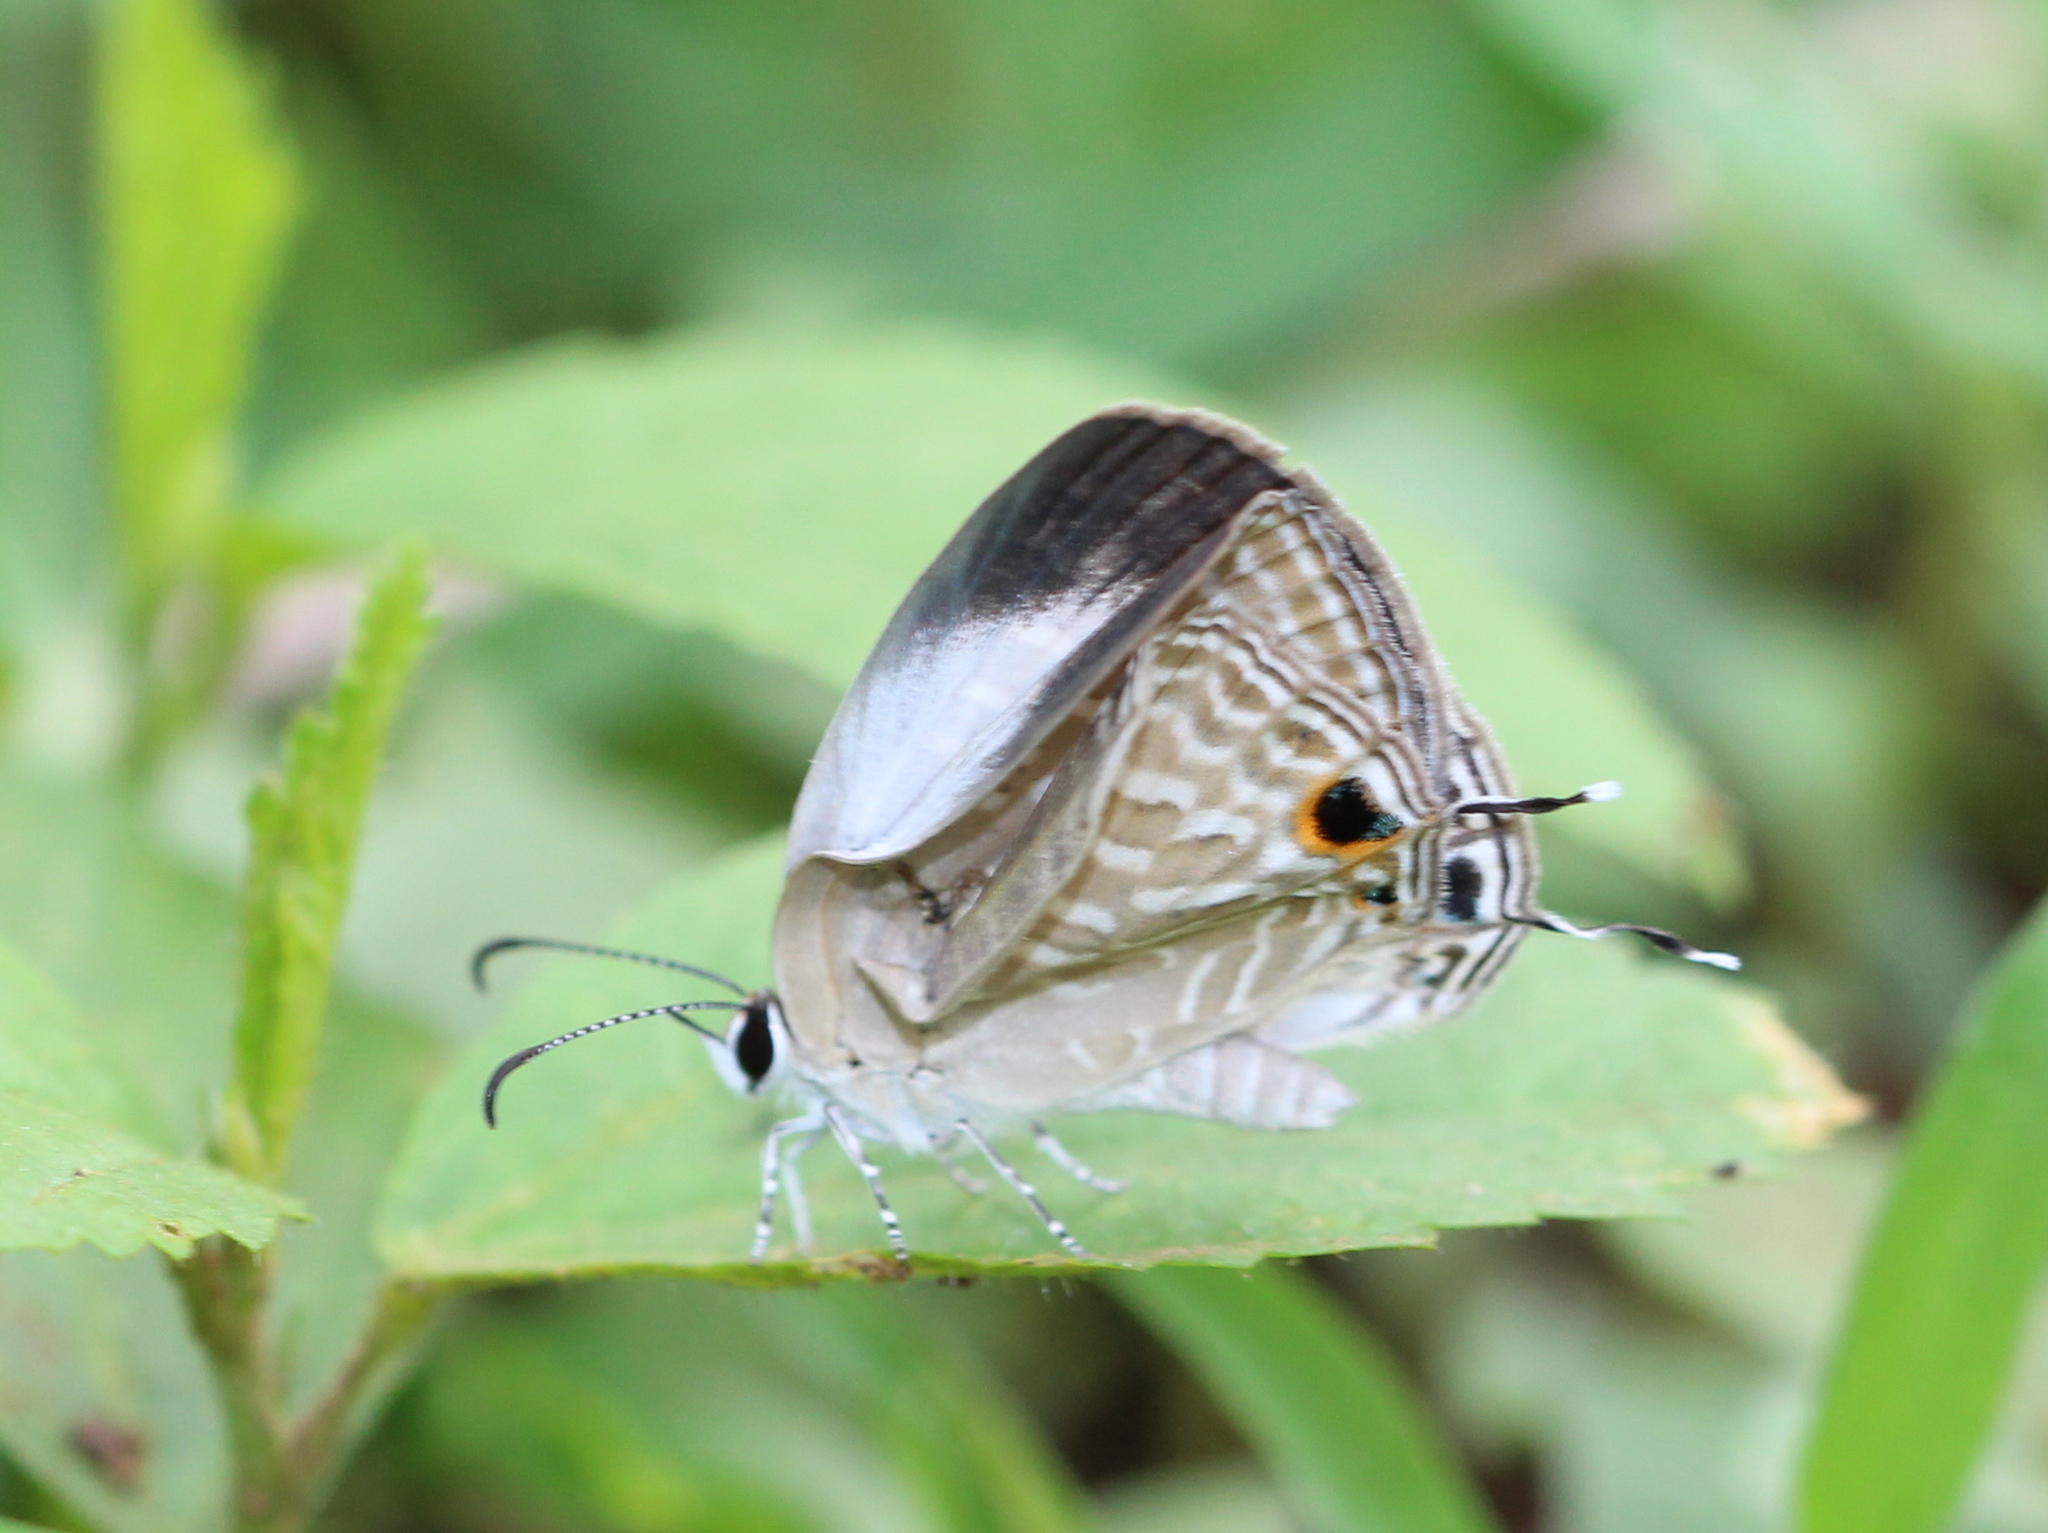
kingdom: Animalia
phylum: Arthropoda
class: Insecta
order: Lepidoptera
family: Lycaenidae
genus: Jamides
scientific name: Jamides celeno
